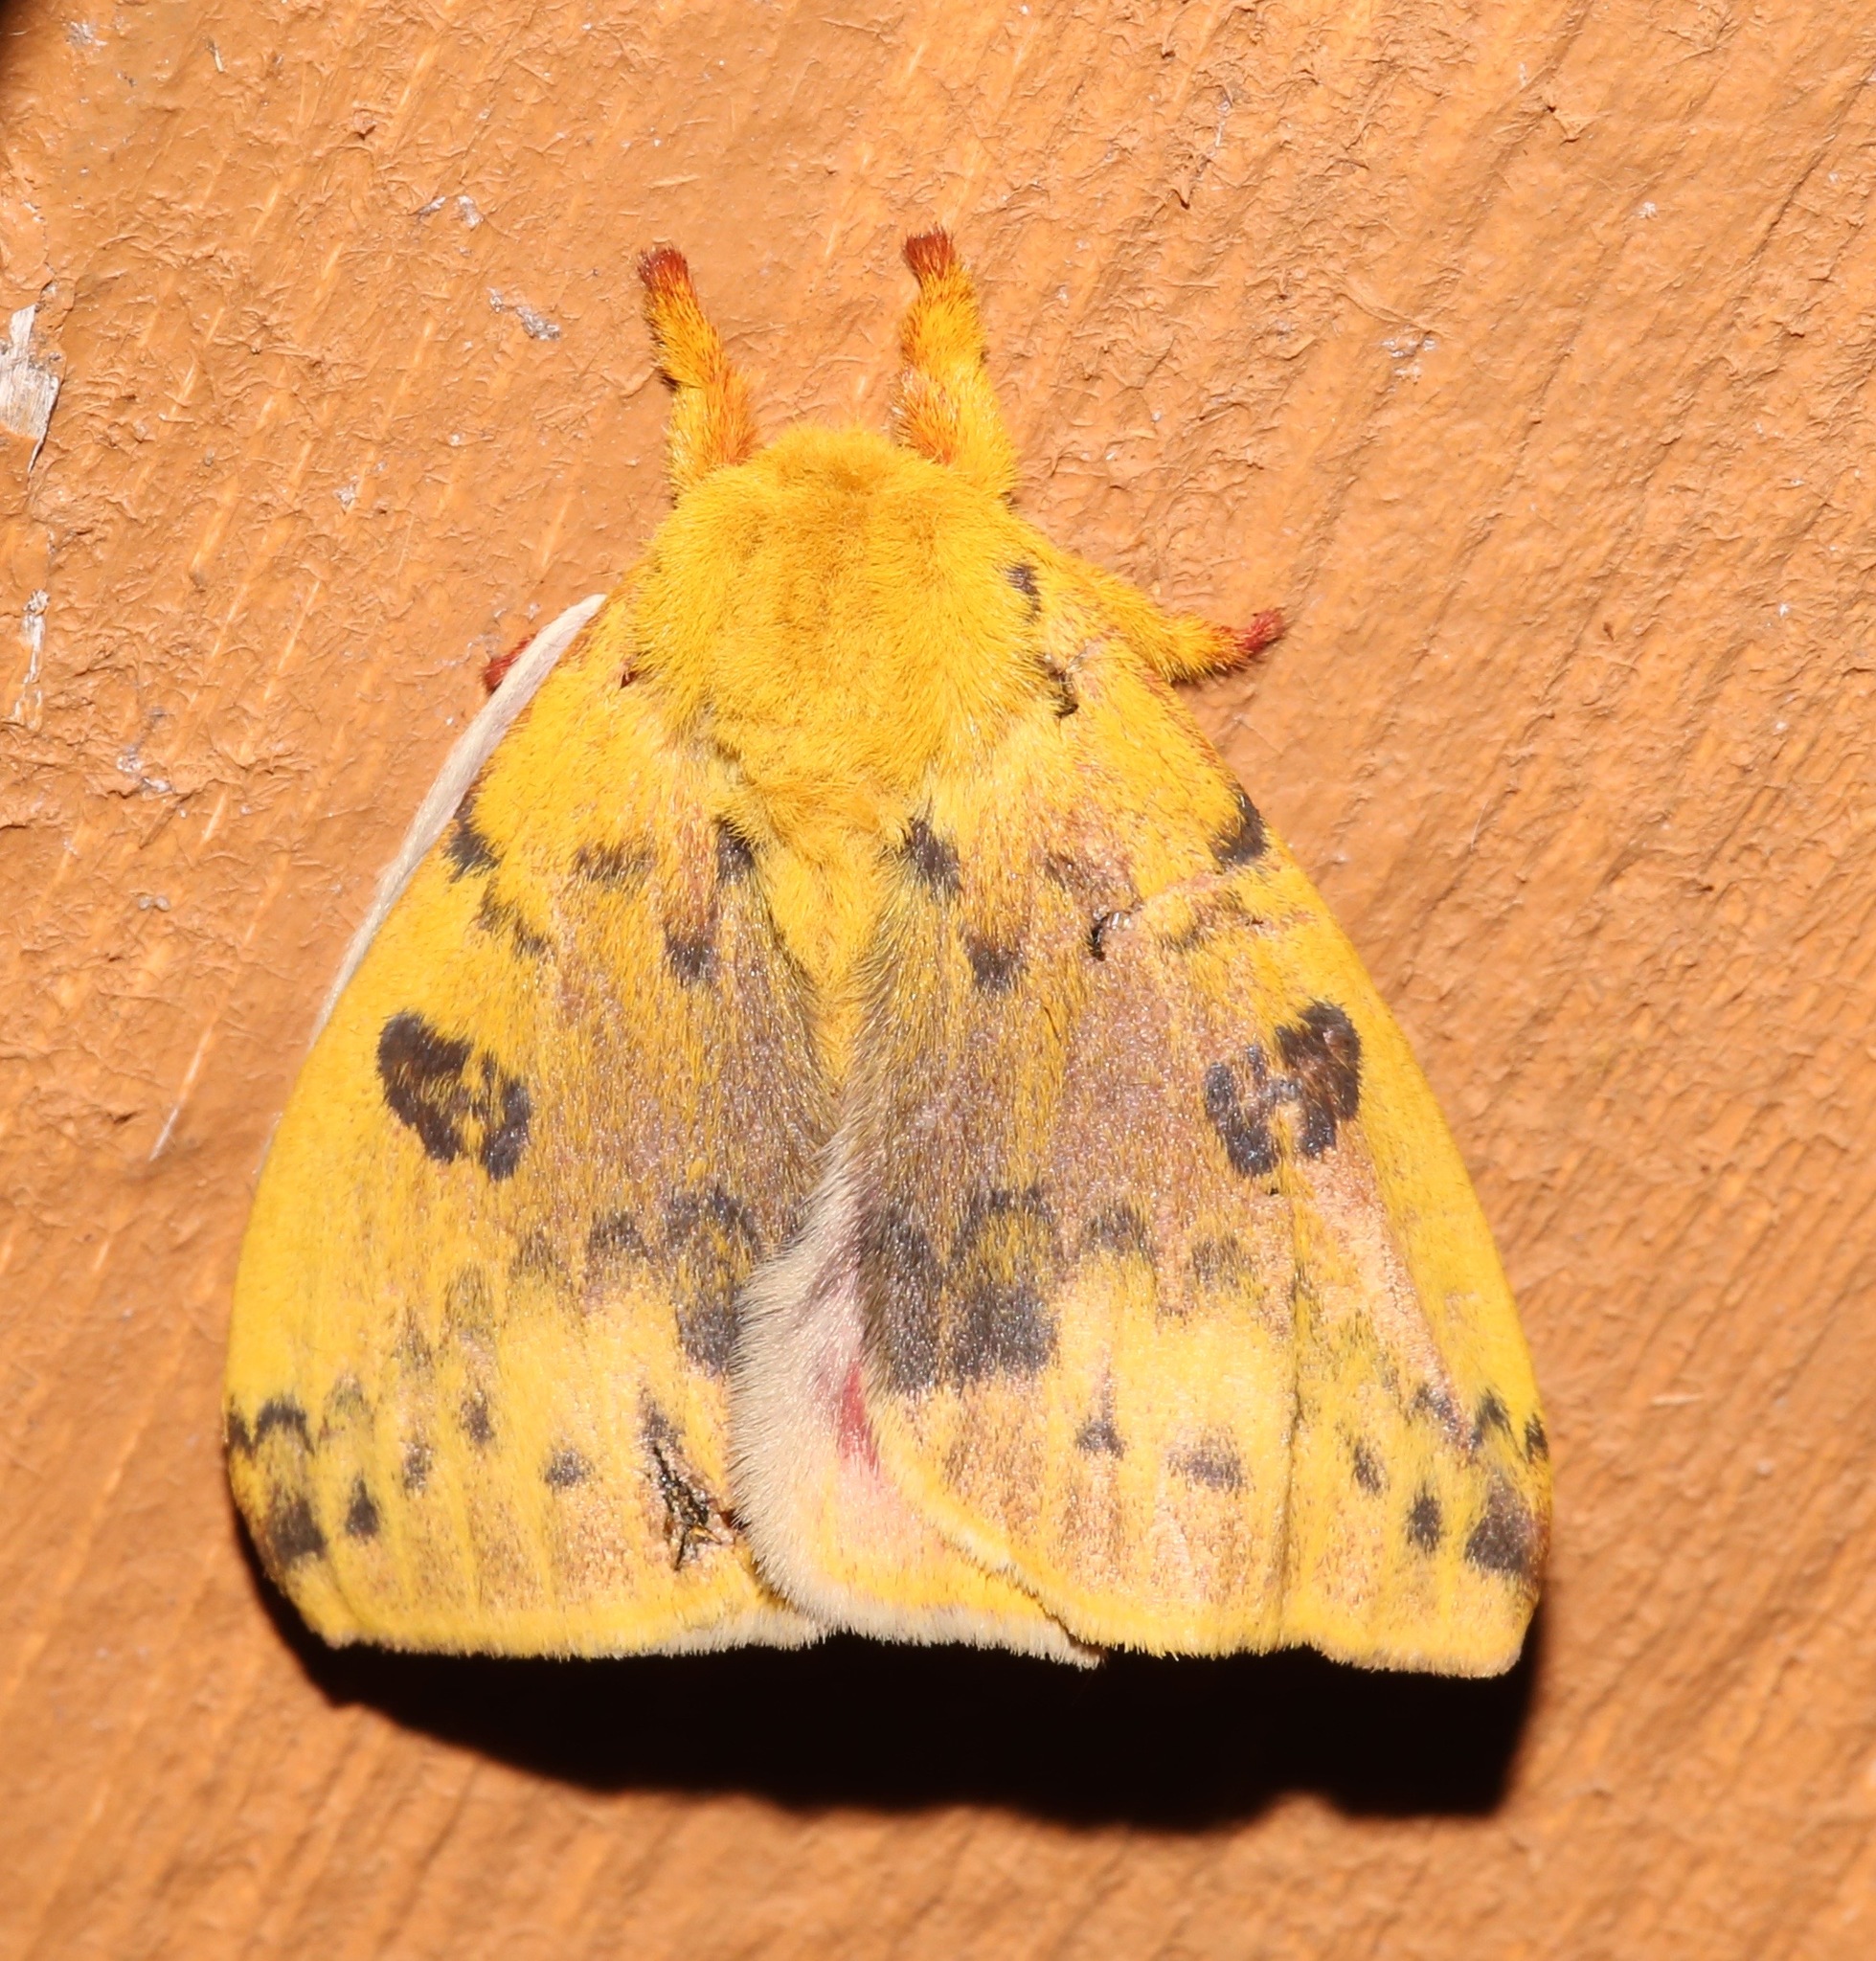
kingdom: Animalia
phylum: Arthropoda
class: Insecta
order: Lepidoptera
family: Saturniidae
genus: Automeris
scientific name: Automeris io
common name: Io moth
